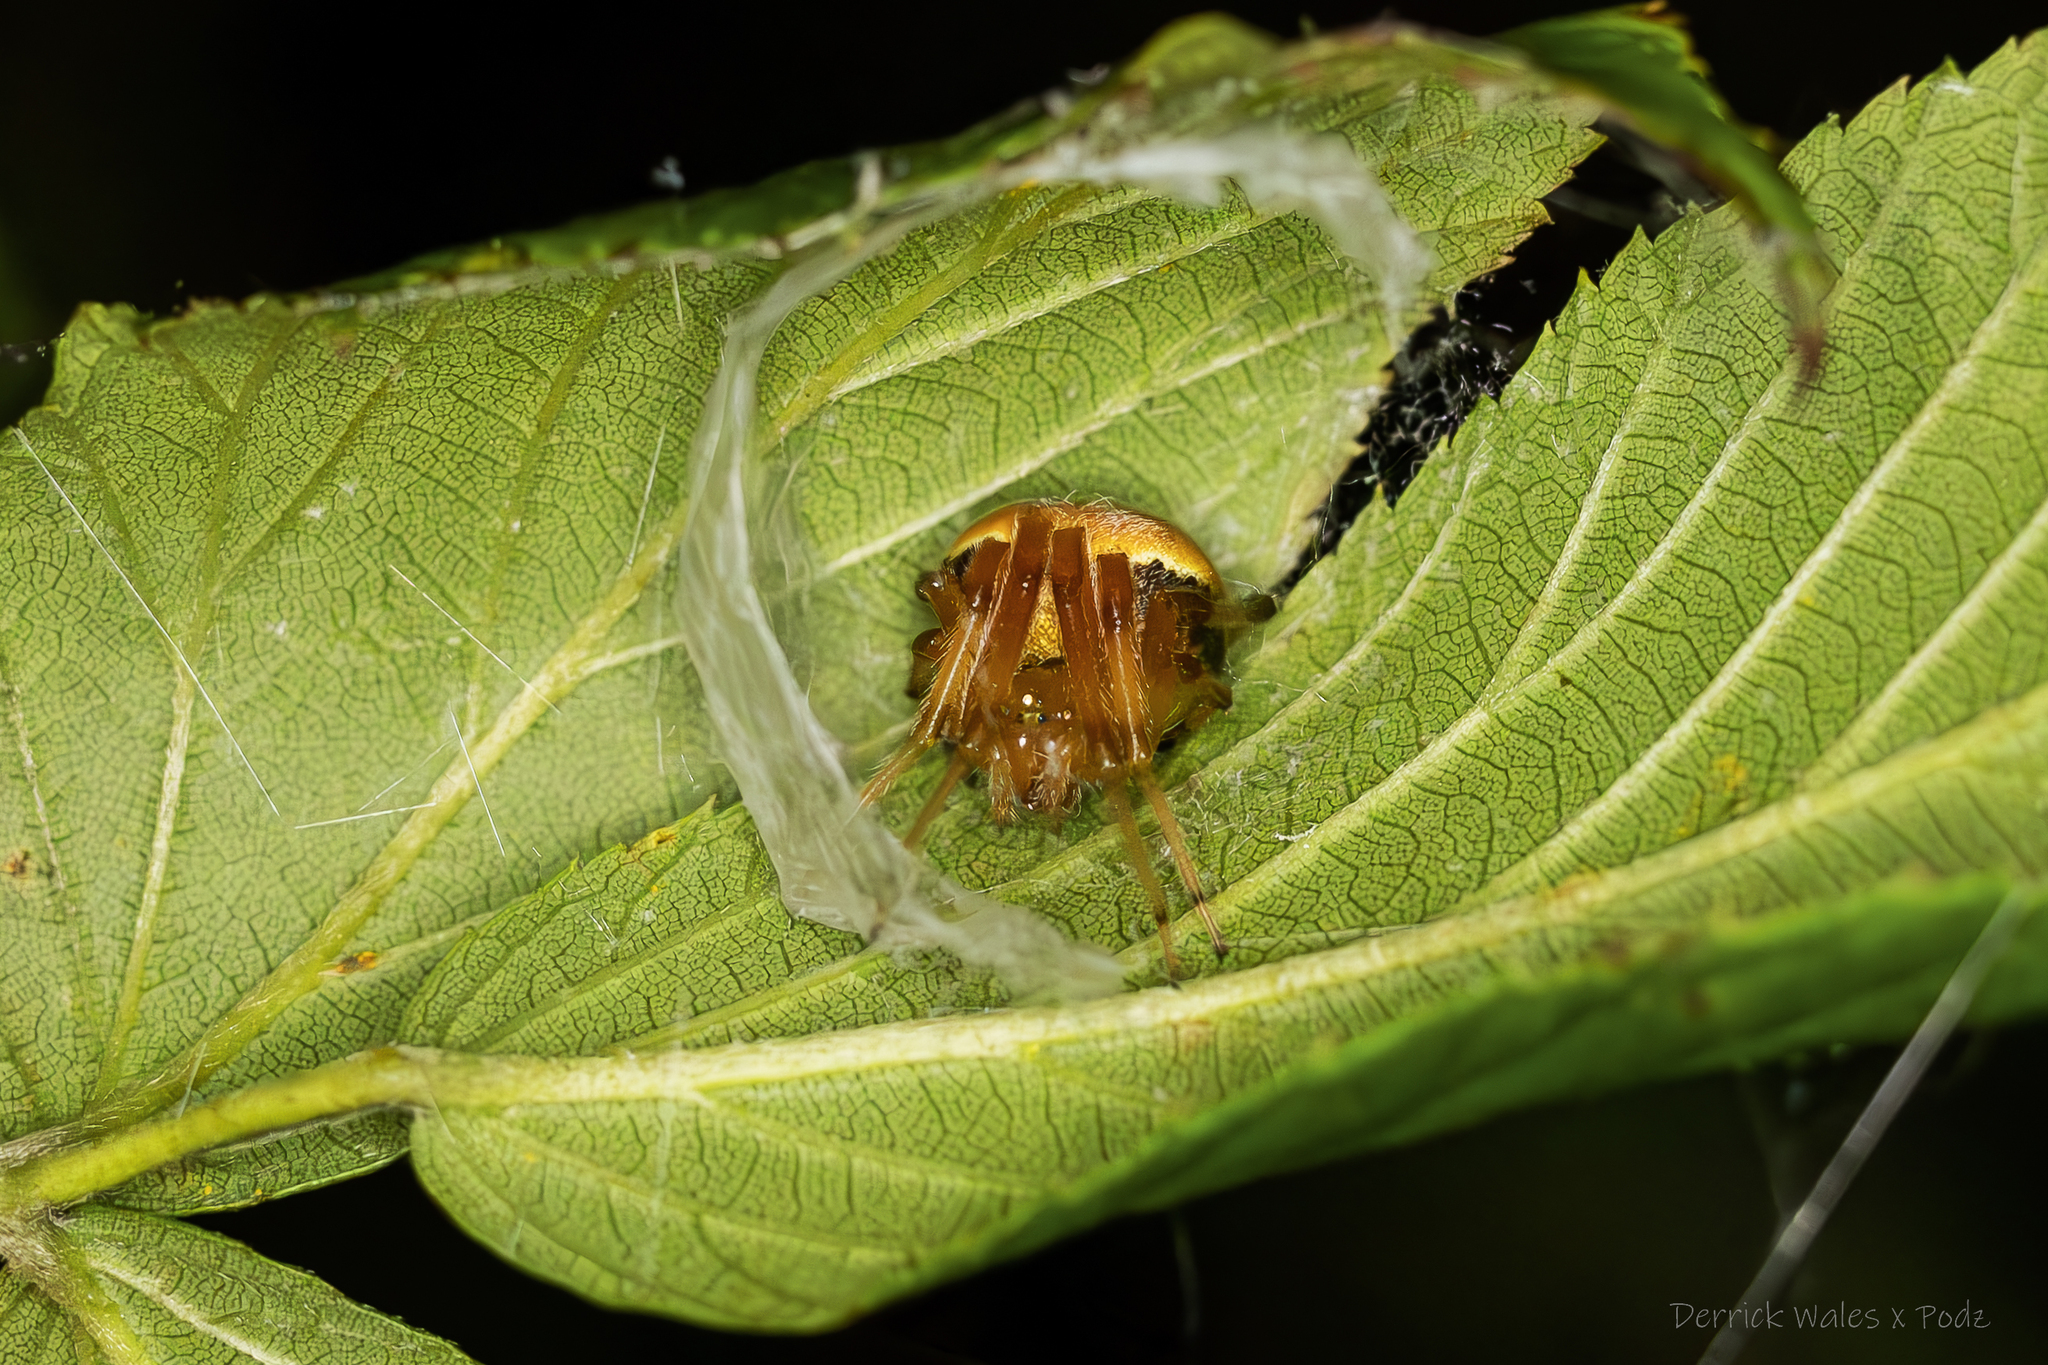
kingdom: Animalia
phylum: Arthropoda
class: Arachnida
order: Araneae
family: Araneidae
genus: Araneus
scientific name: Araneus thaddeus
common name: Lattice orbweaver
